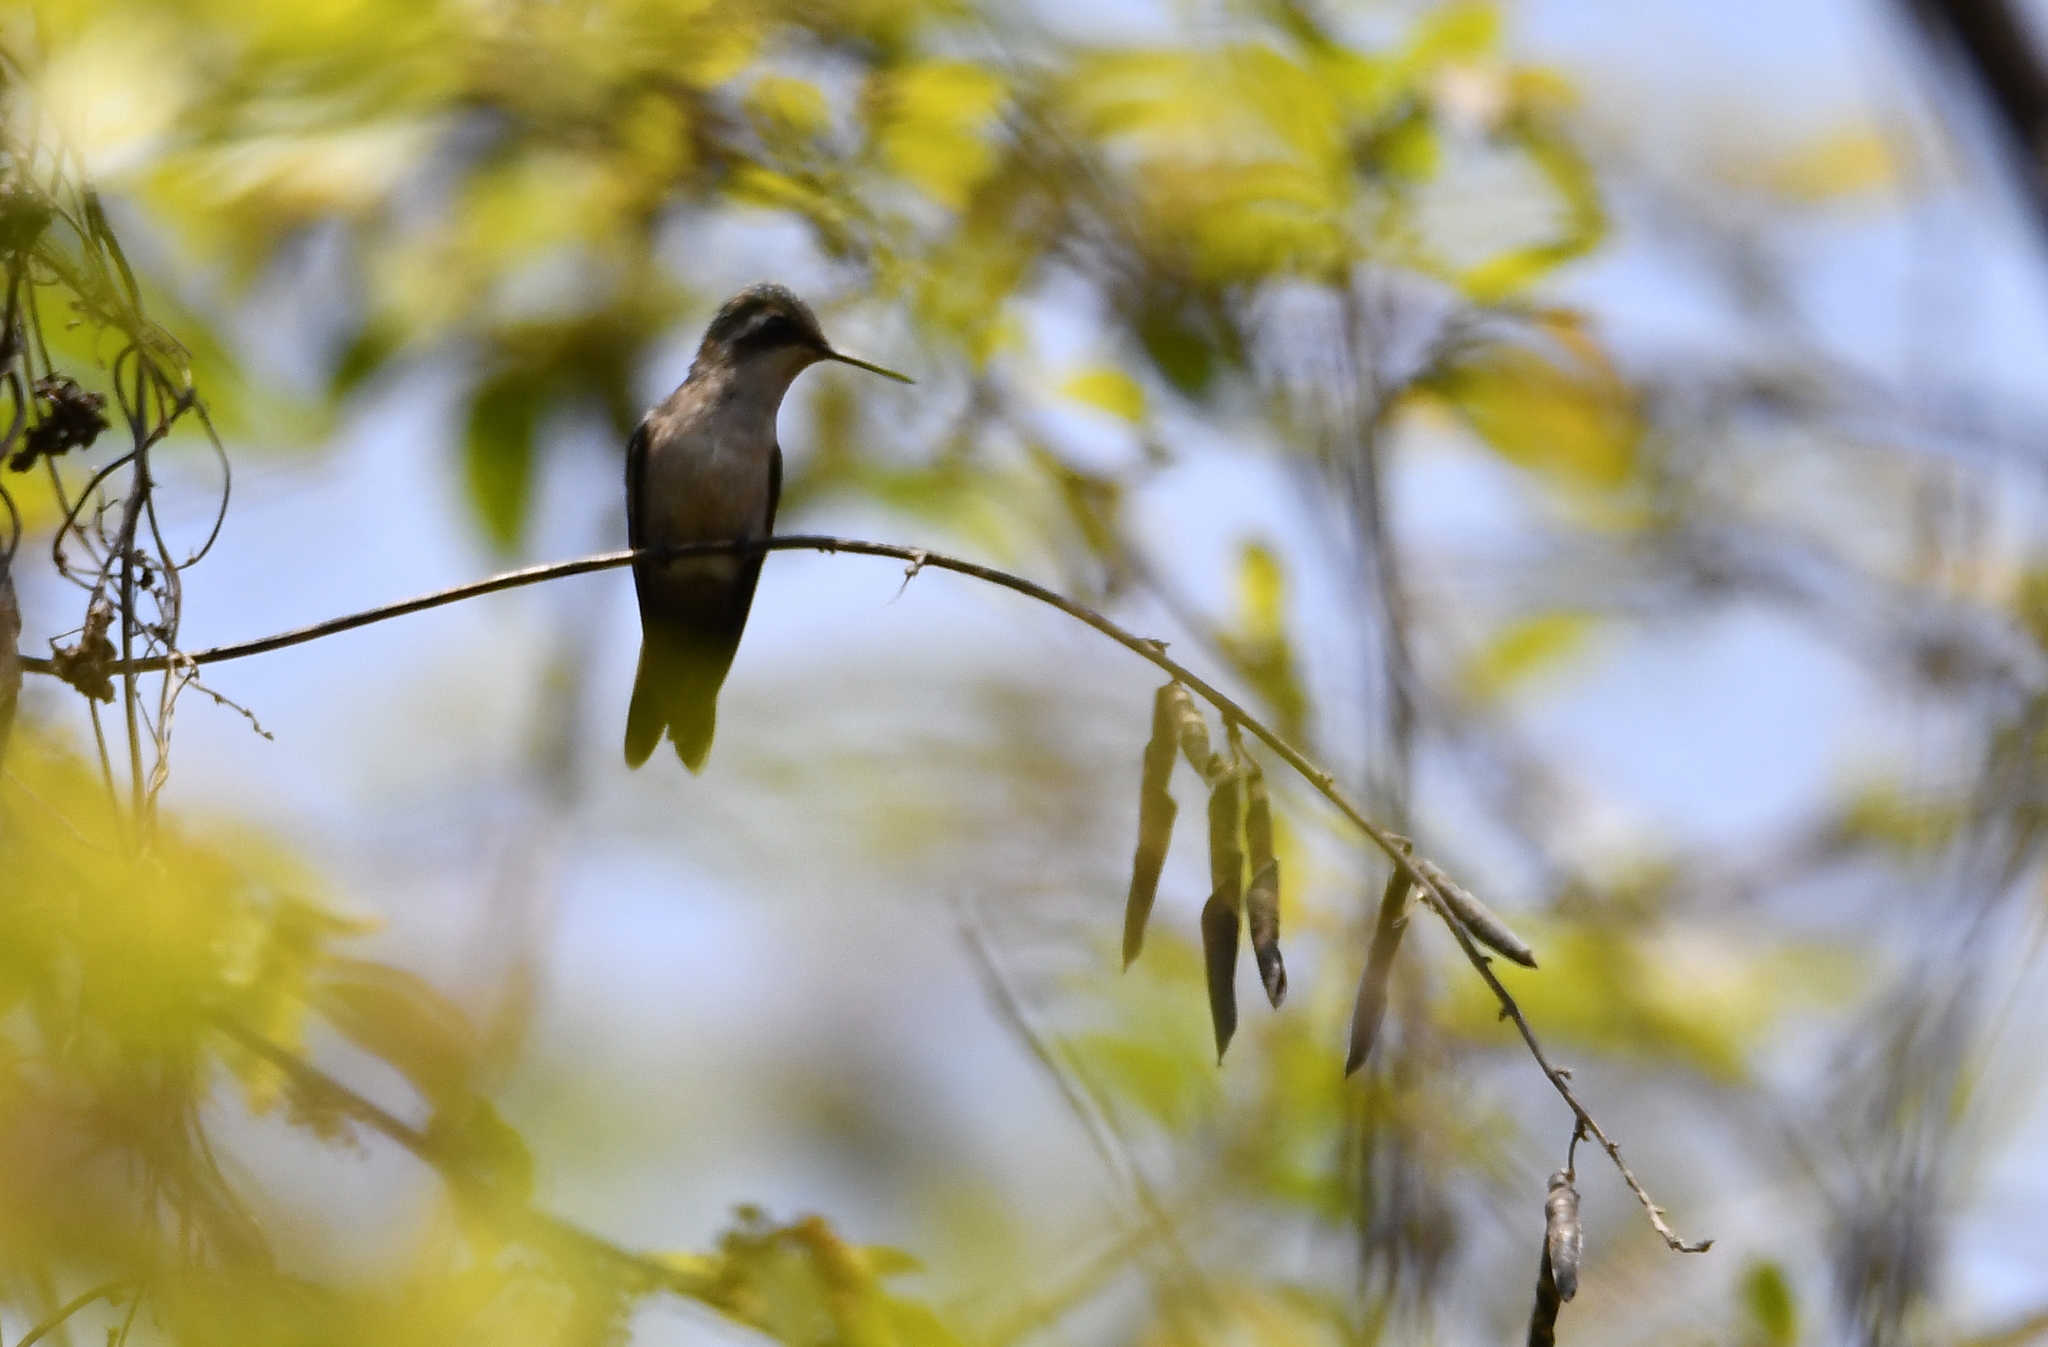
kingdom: Animalia
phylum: Chordata
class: Aves
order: Apodiformes
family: Trochilidae
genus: Cynanthus
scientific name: Cynanthus auriceps
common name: Golden-crowned emerald
